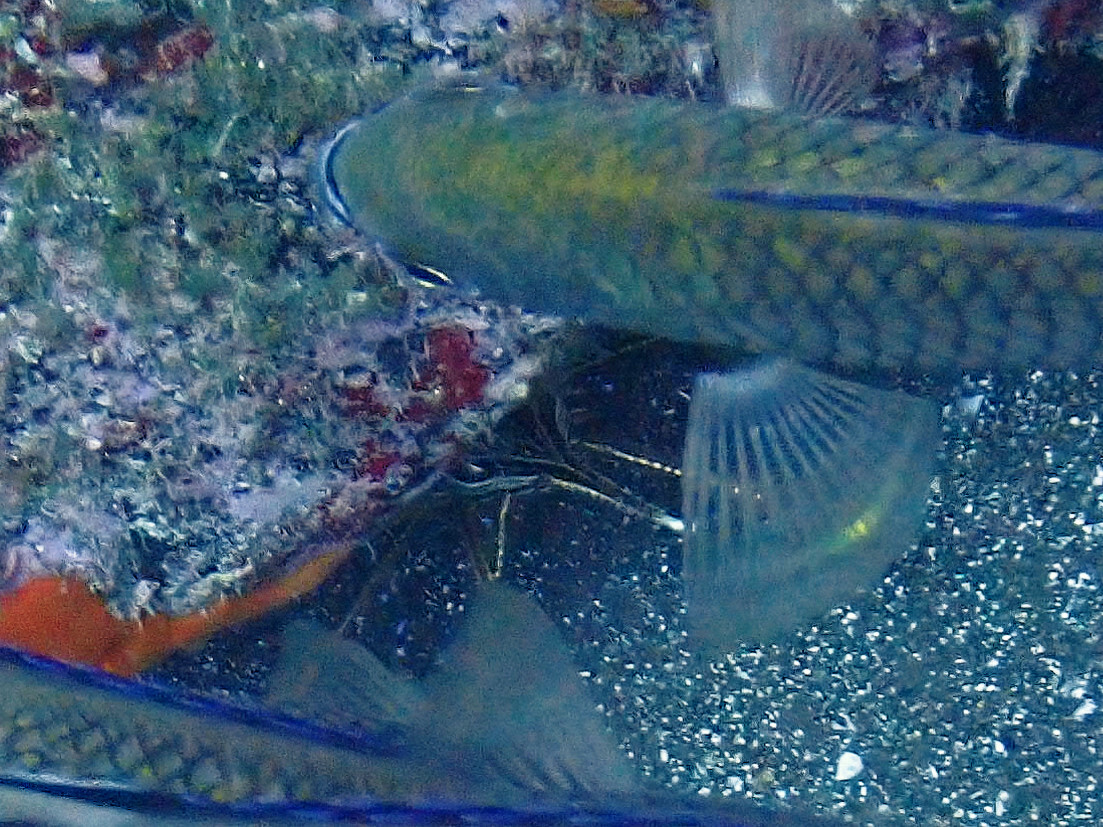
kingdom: Animalia
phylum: Arthropoda
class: Malacostraca
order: Decapoda
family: Inachoididae
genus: Stenorhynchus
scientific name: Stenorhynchus lanceolatus
